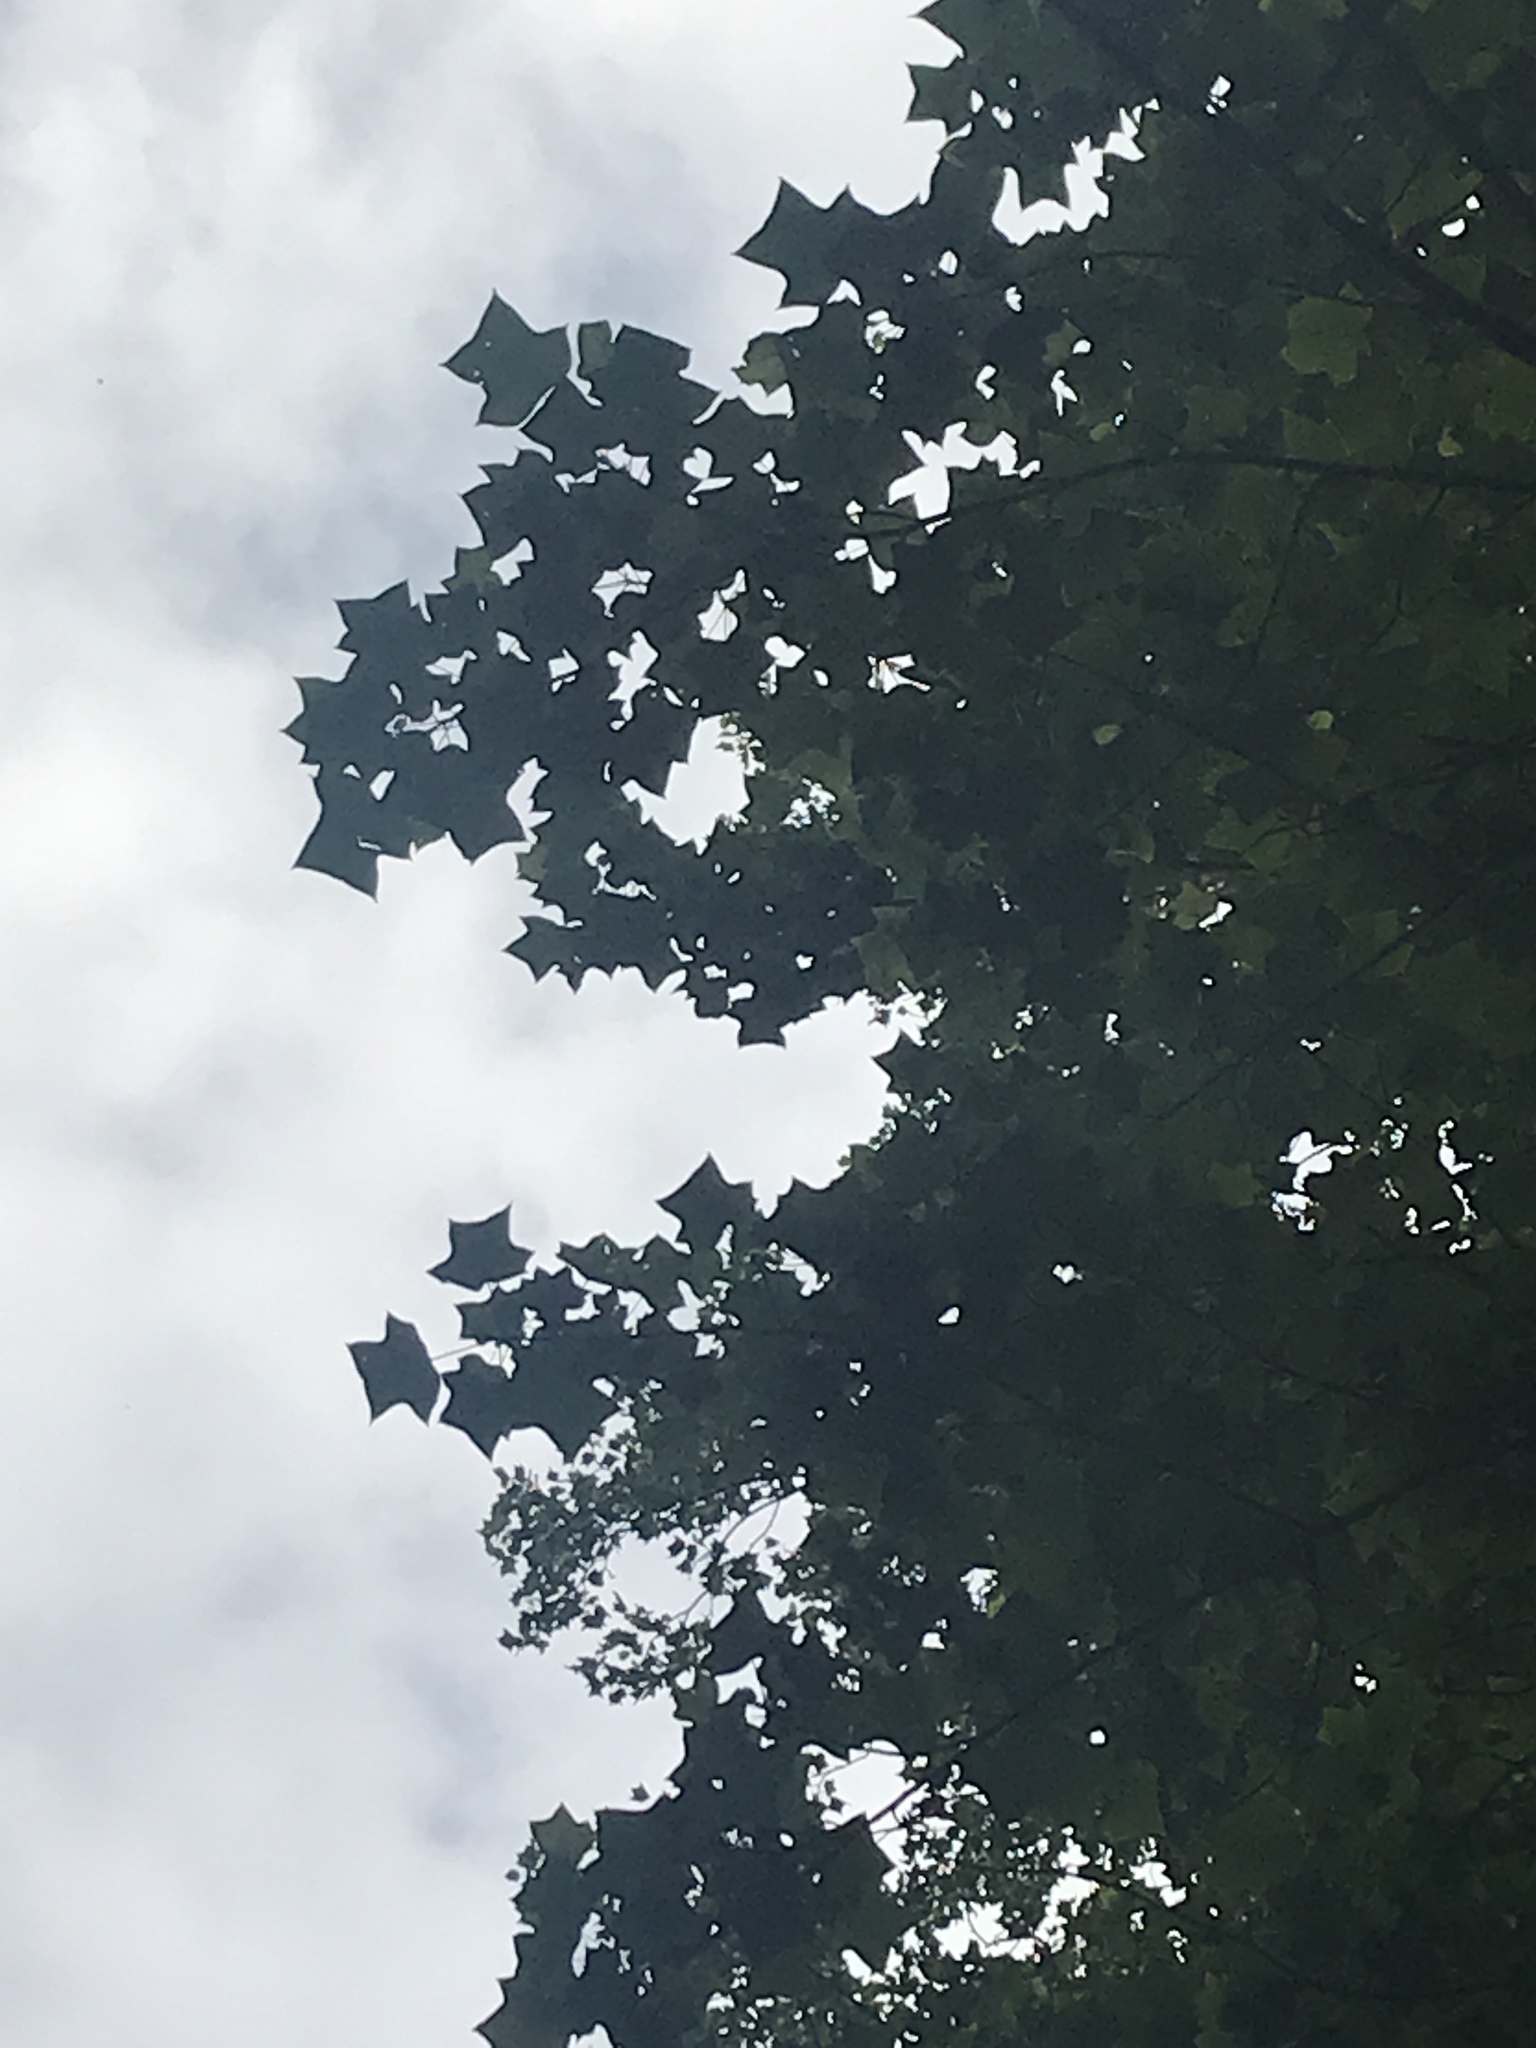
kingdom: Plantae
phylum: Tracheophyta
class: Magnoliopsida
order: Magnoliales
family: Magnoliaceae
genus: Liriodendron
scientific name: Liriodendron tulipifera
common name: Tulip tree
